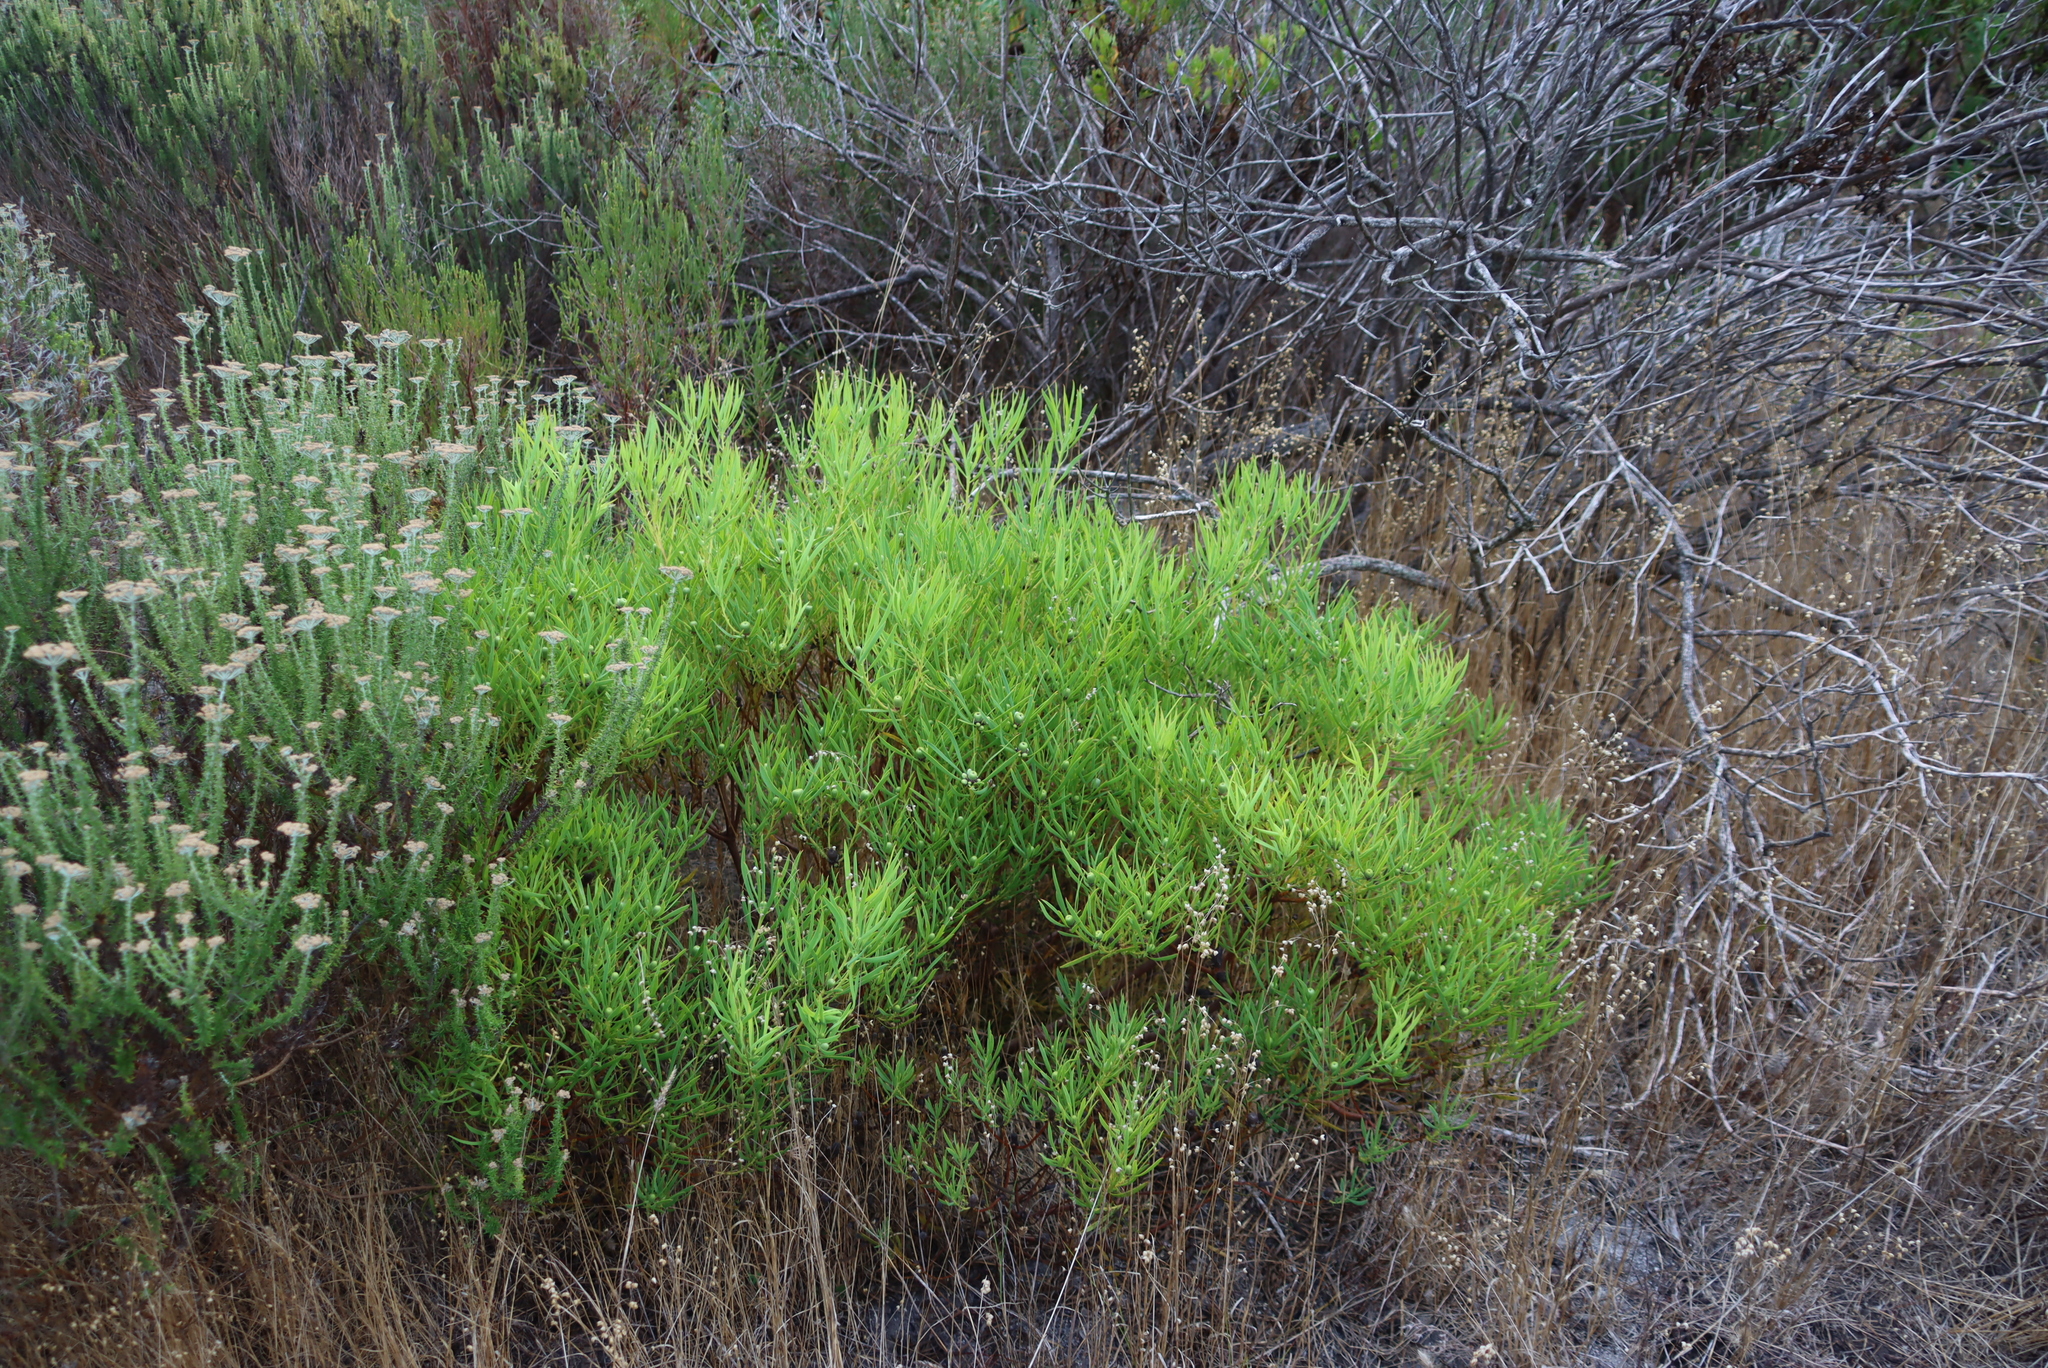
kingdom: Plantae
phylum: Tracheophyta
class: Magnoliopsida
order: Proteales
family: Proteaceae
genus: Leucadendron
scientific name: Leucadendron salignum
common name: Common sunshine conebush
